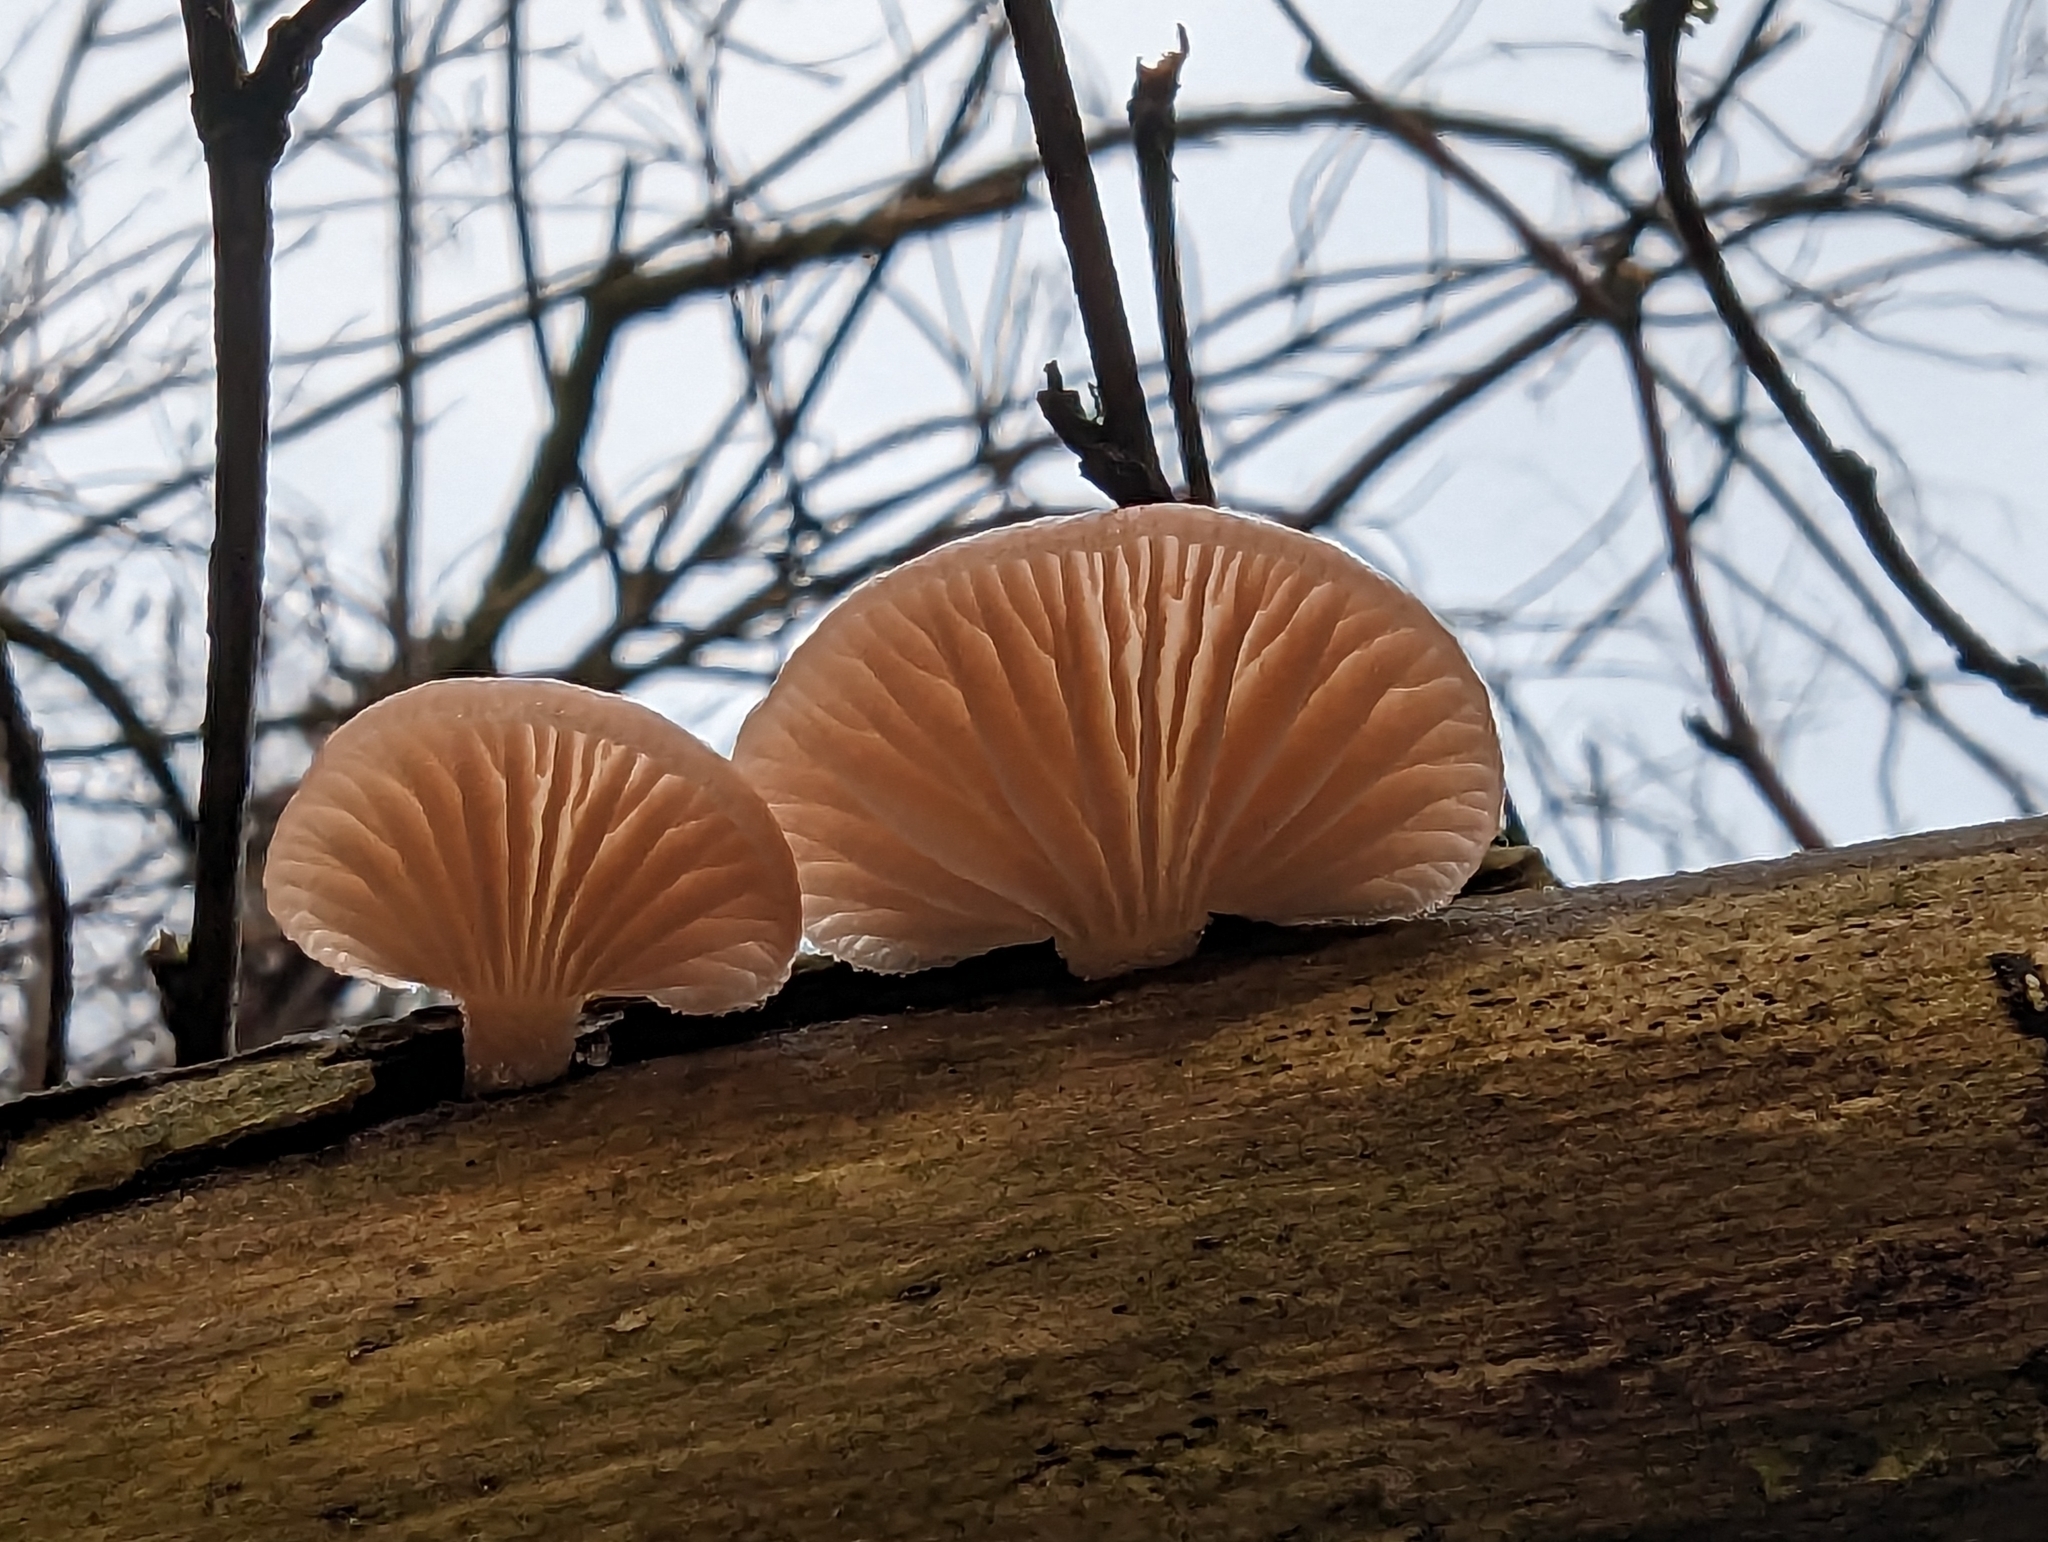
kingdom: Fungi
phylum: Basidiomycota
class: Agaricomycetes
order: Agaricales
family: Mycenaceae
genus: Panellus
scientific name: Panellus longinquus
